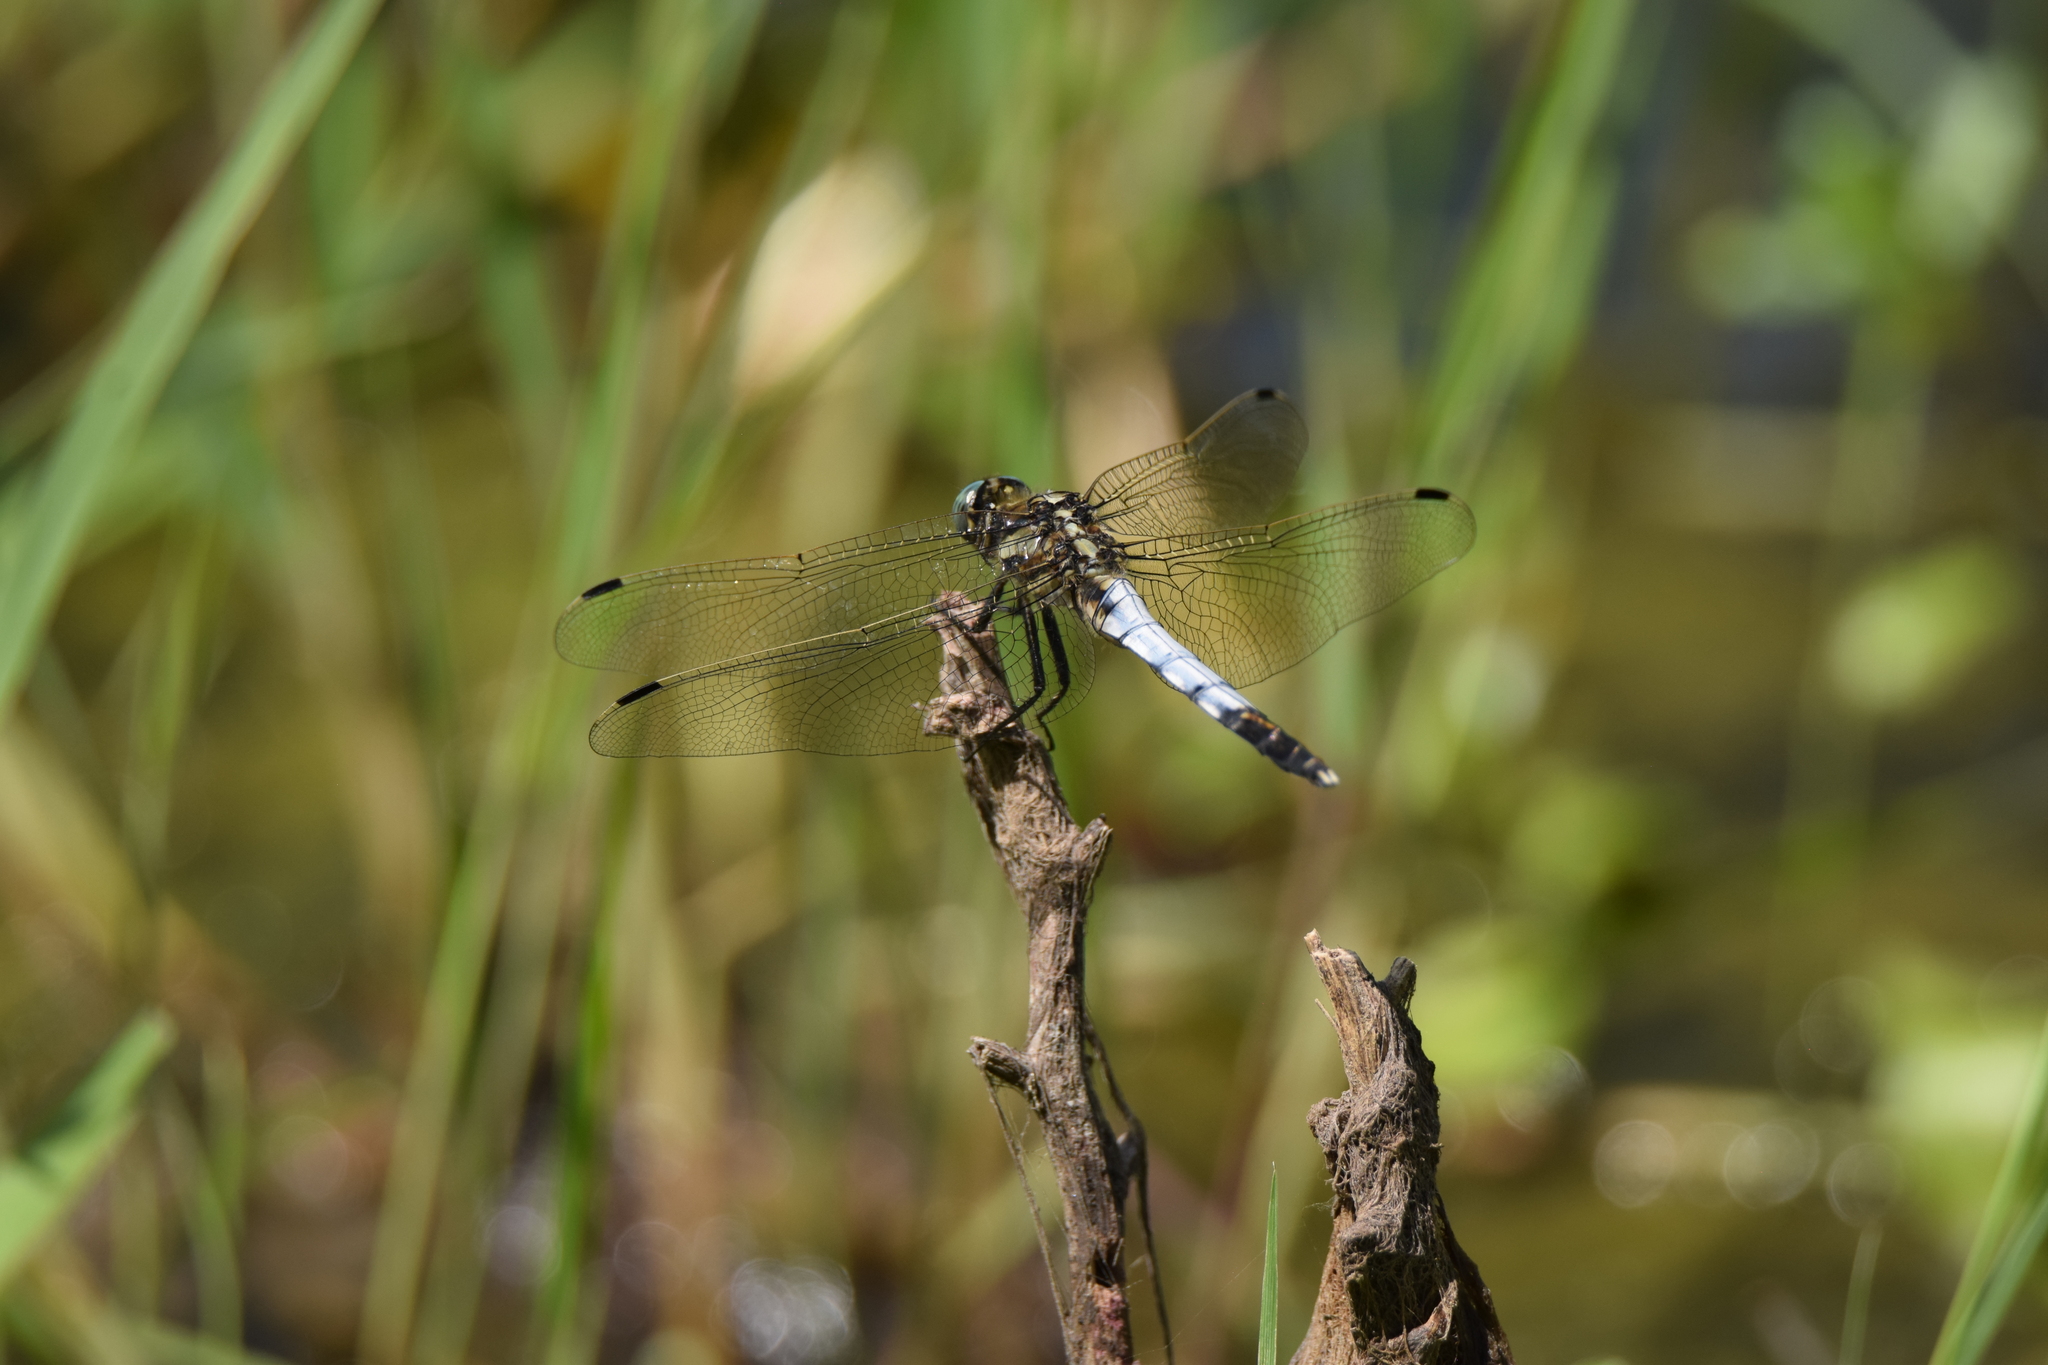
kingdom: Animalia
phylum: Arthropoda
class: Insecta
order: Odonata
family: Libellulidae
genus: Orthetrum
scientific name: Orthetrum albistylum
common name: White-tailed skimmer
